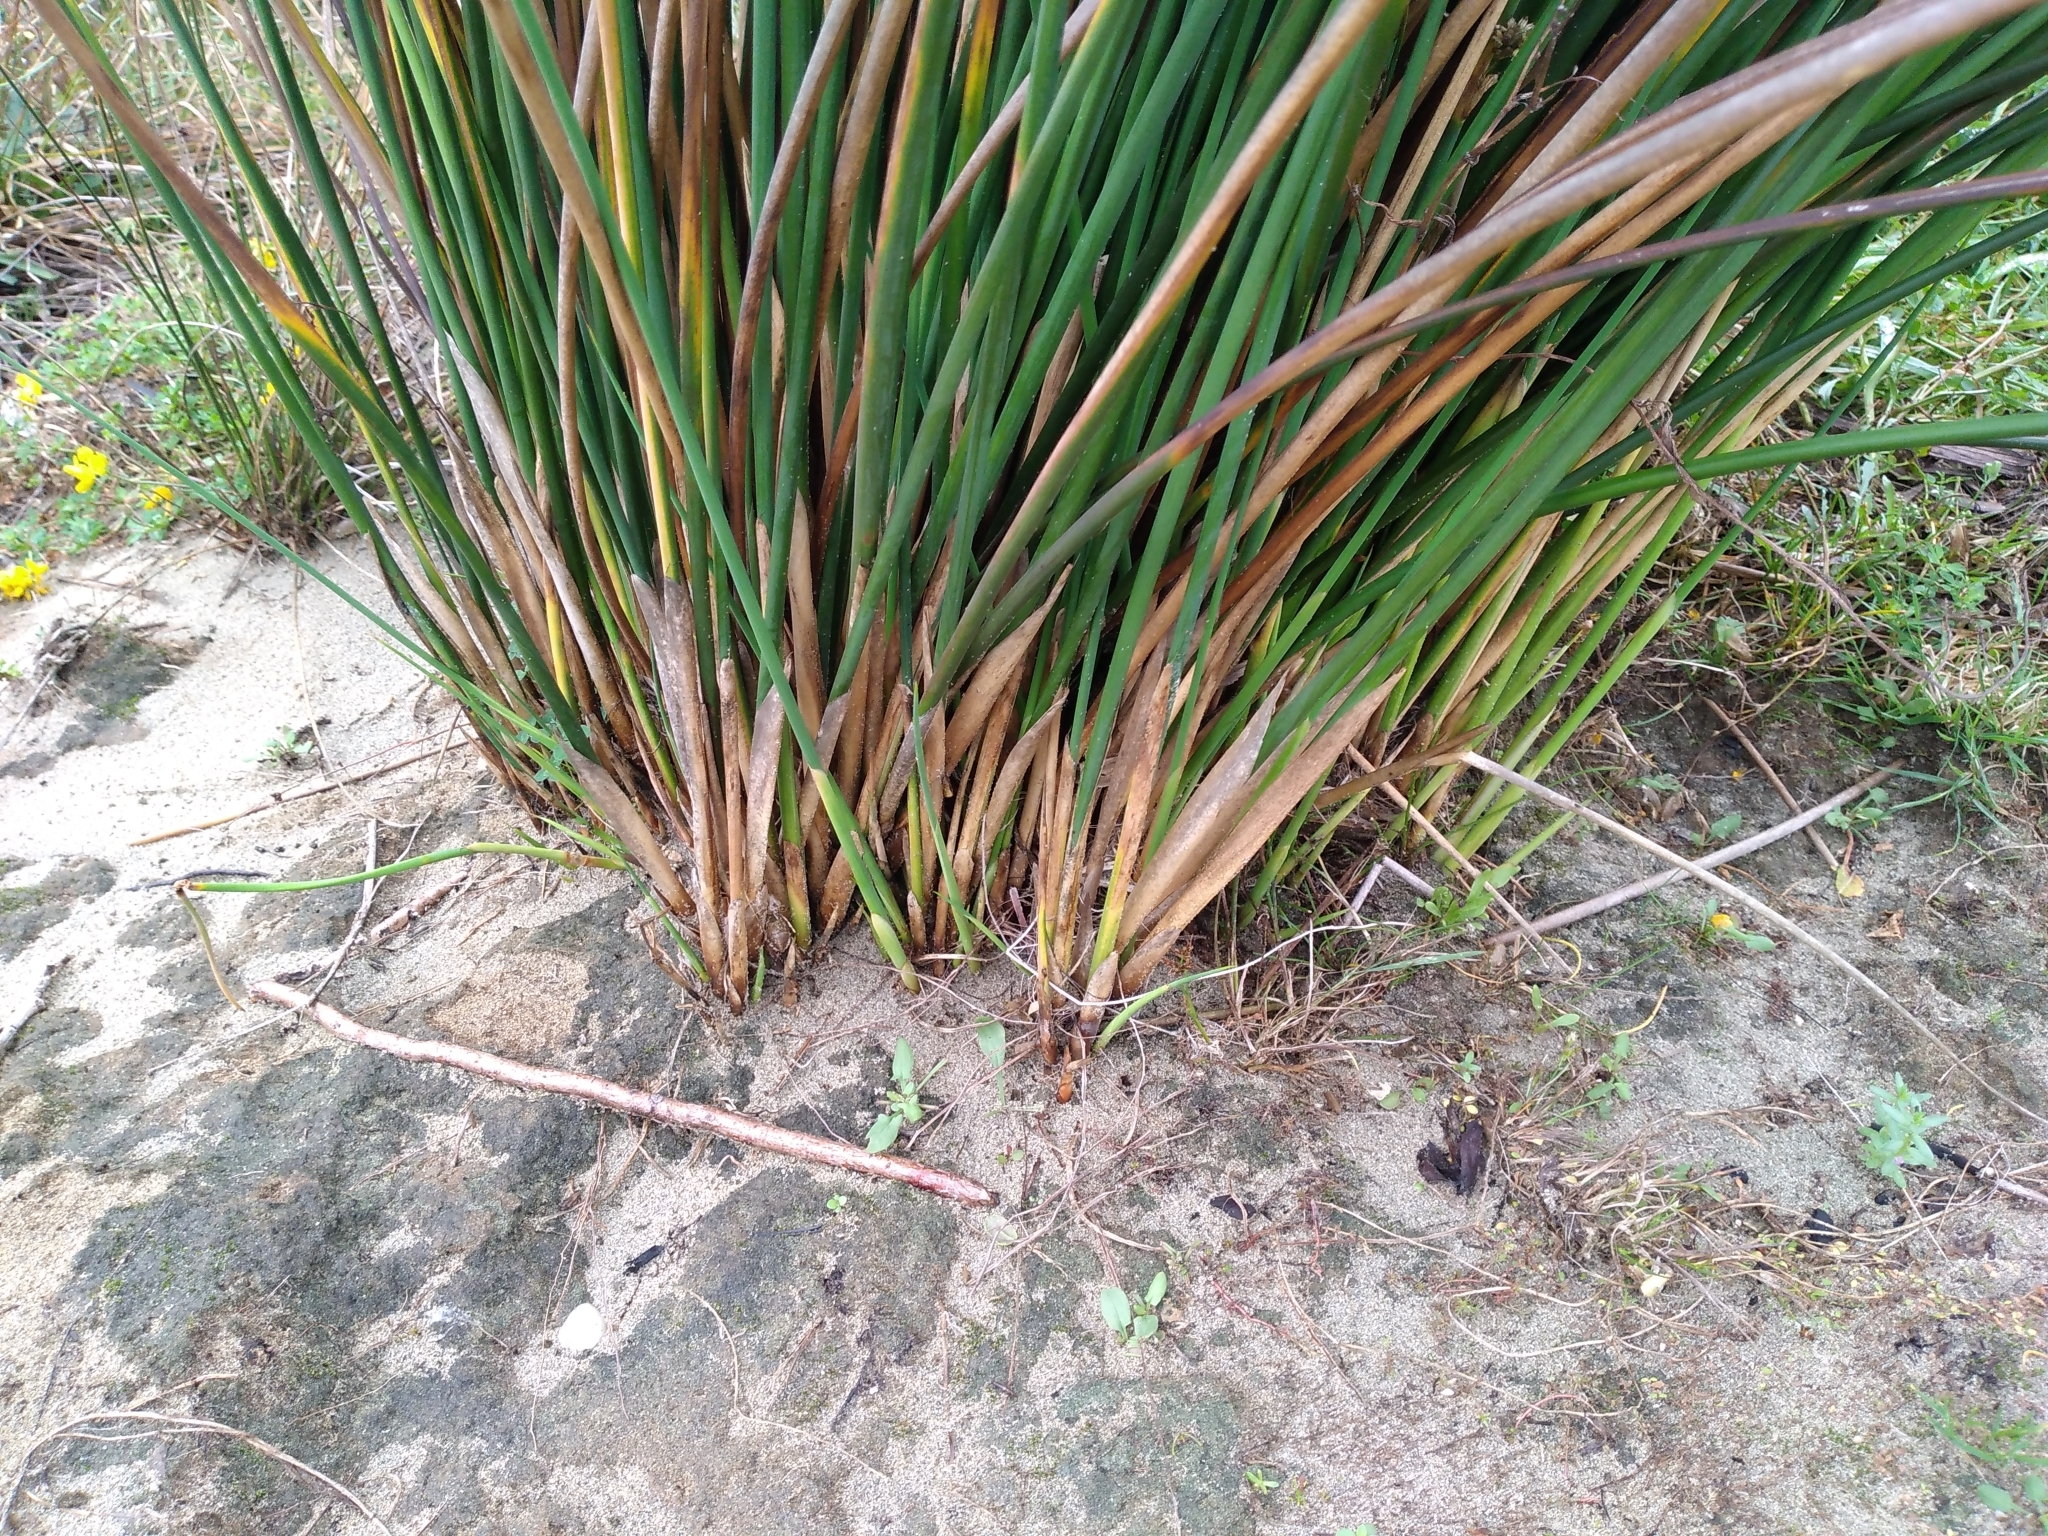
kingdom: Plantae
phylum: Tracheophyta
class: Liliopsida
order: Poales
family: Juncaceae
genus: Juncus
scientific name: Juncus pallidus
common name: Great soft-rush
